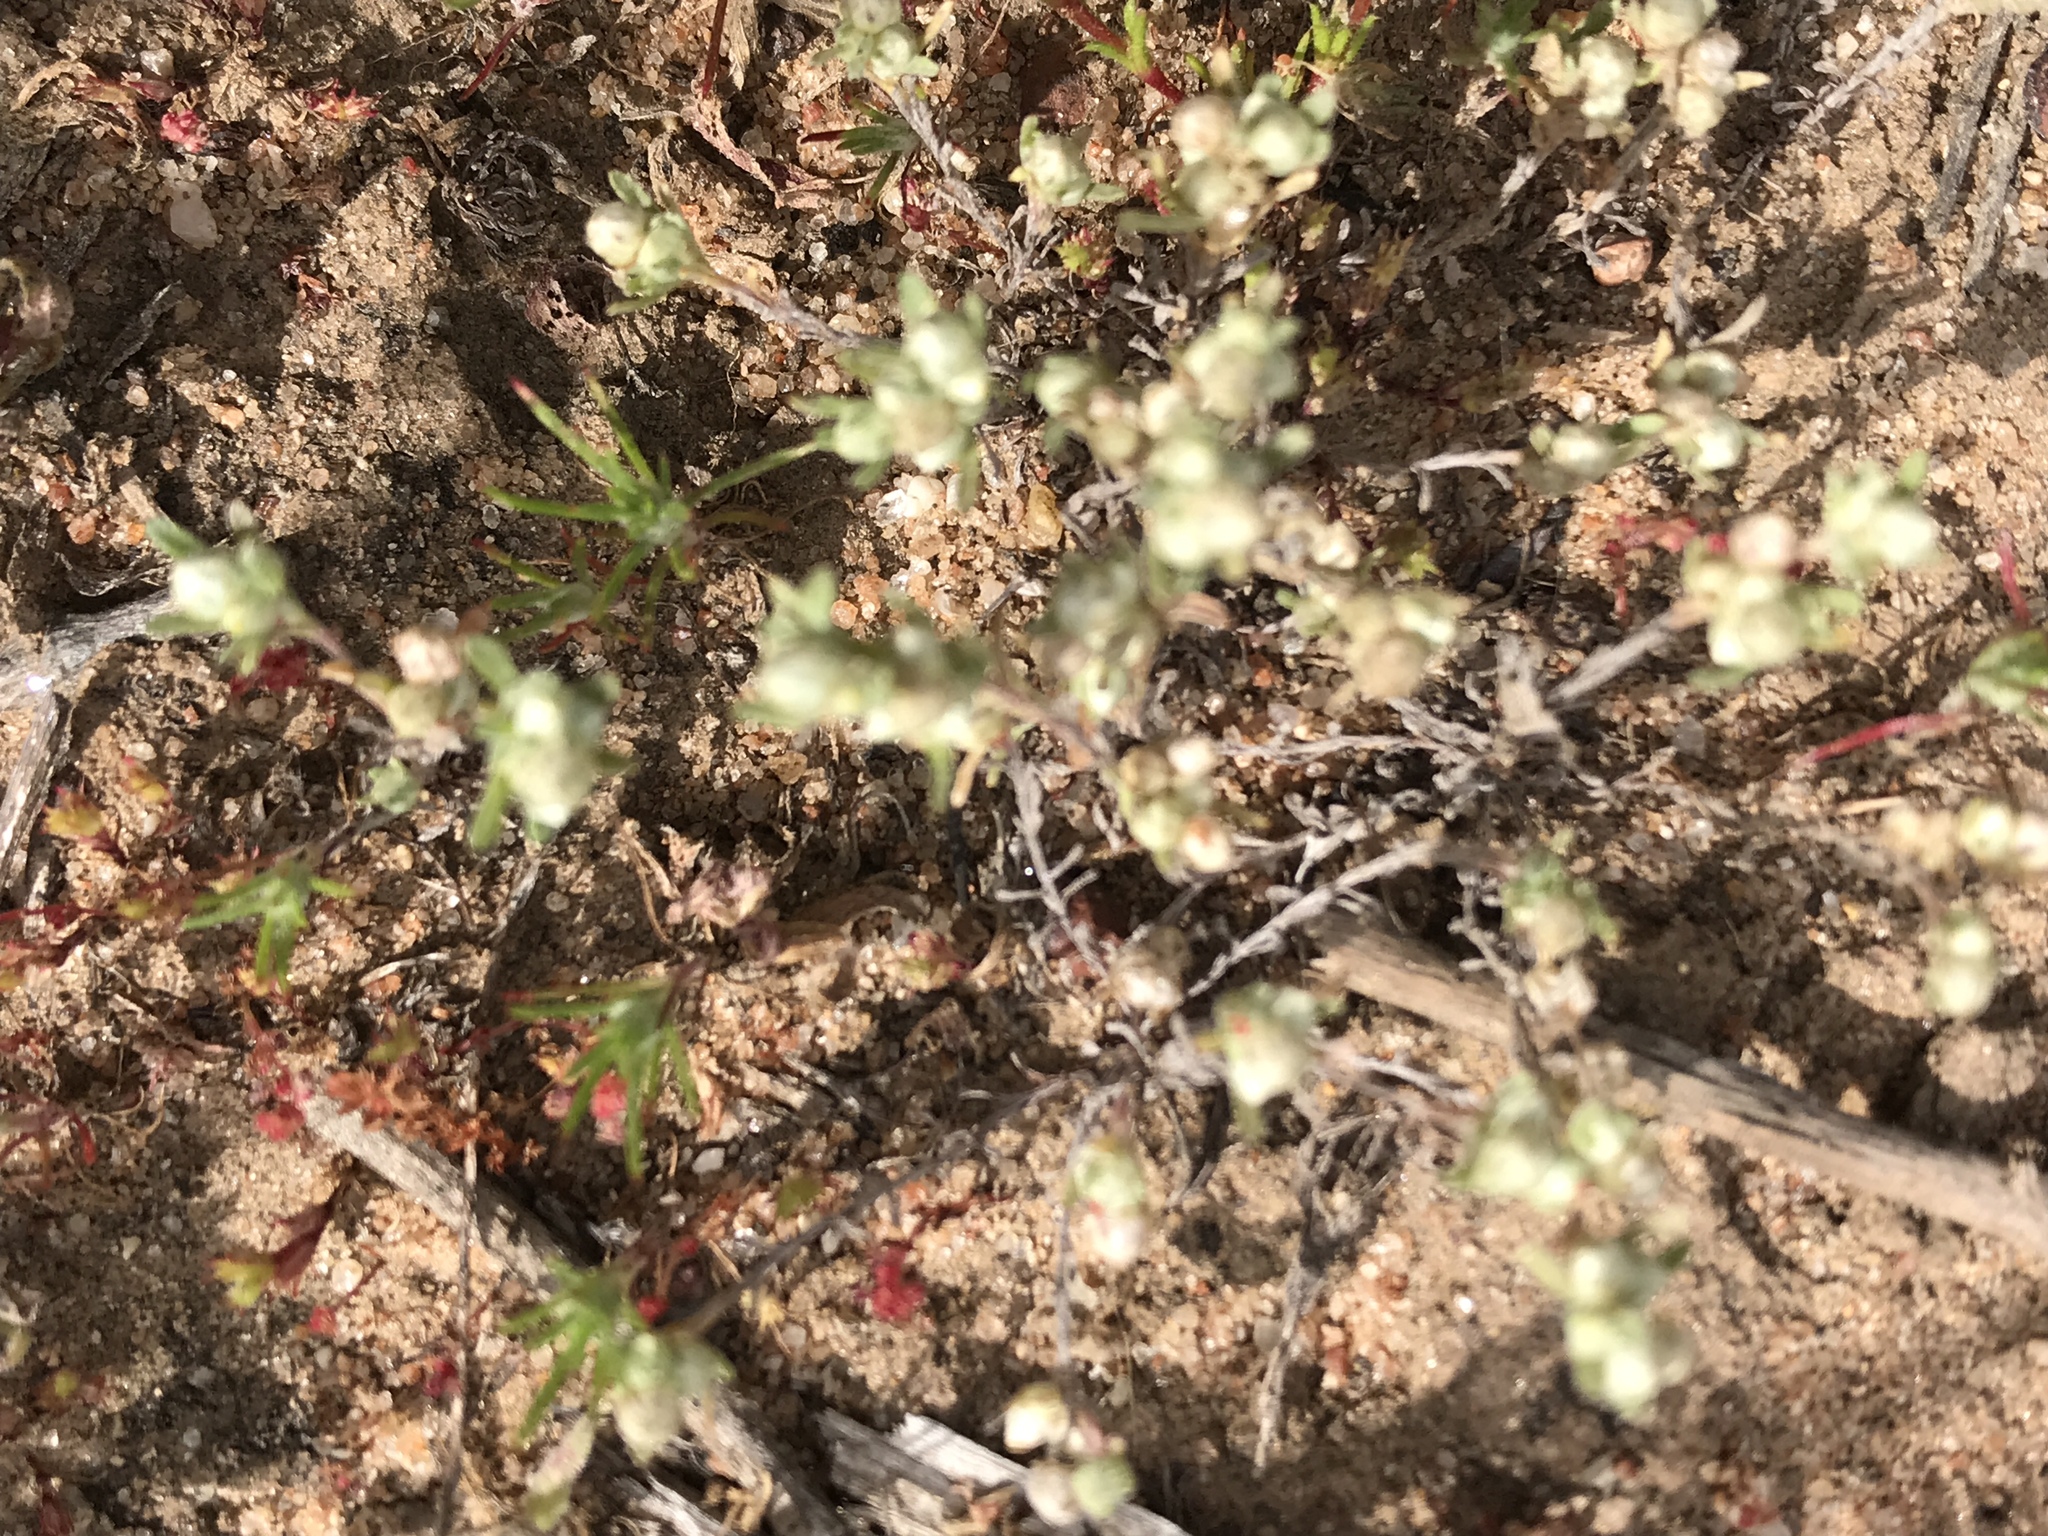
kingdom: Plantae
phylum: Tracheophyta
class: Magnoliopsida
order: Asterales
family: Asteraceae
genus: Stylocline
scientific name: Stylocline gnaphaloides
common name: Everlasting nest-straw
